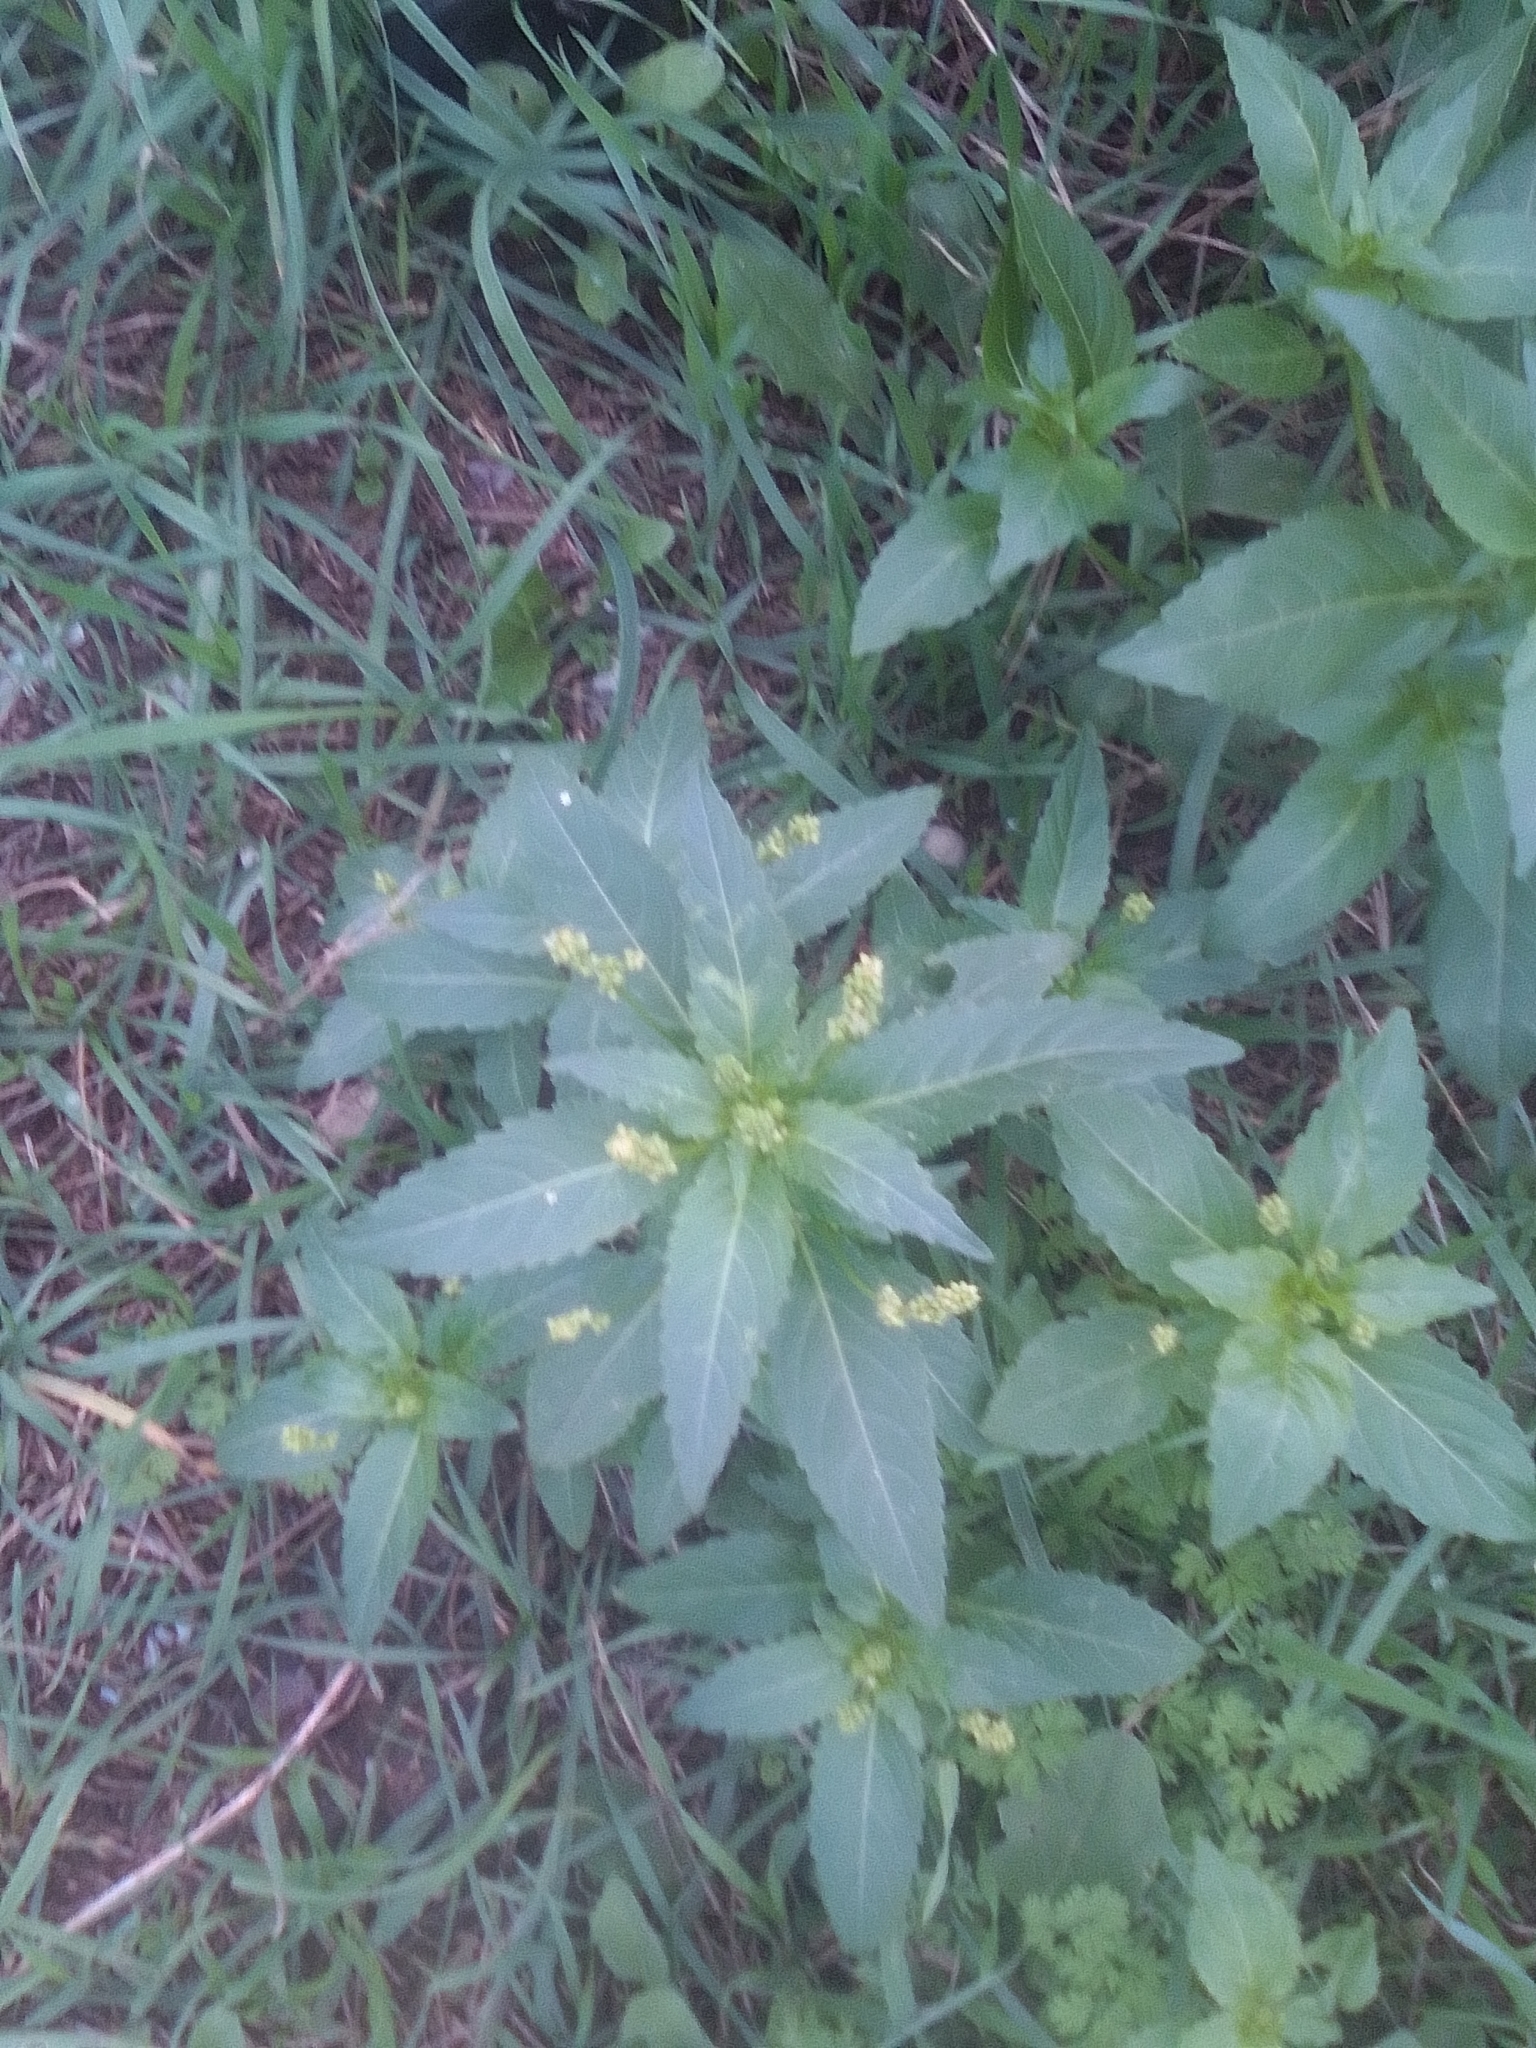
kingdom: Plantae
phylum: Tracheophyta
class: Magnoliopsida
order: Malpighiales
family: Euphorbiaceae
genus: Mercurialis
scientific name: Mercurialis annua
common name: Annual mercury
